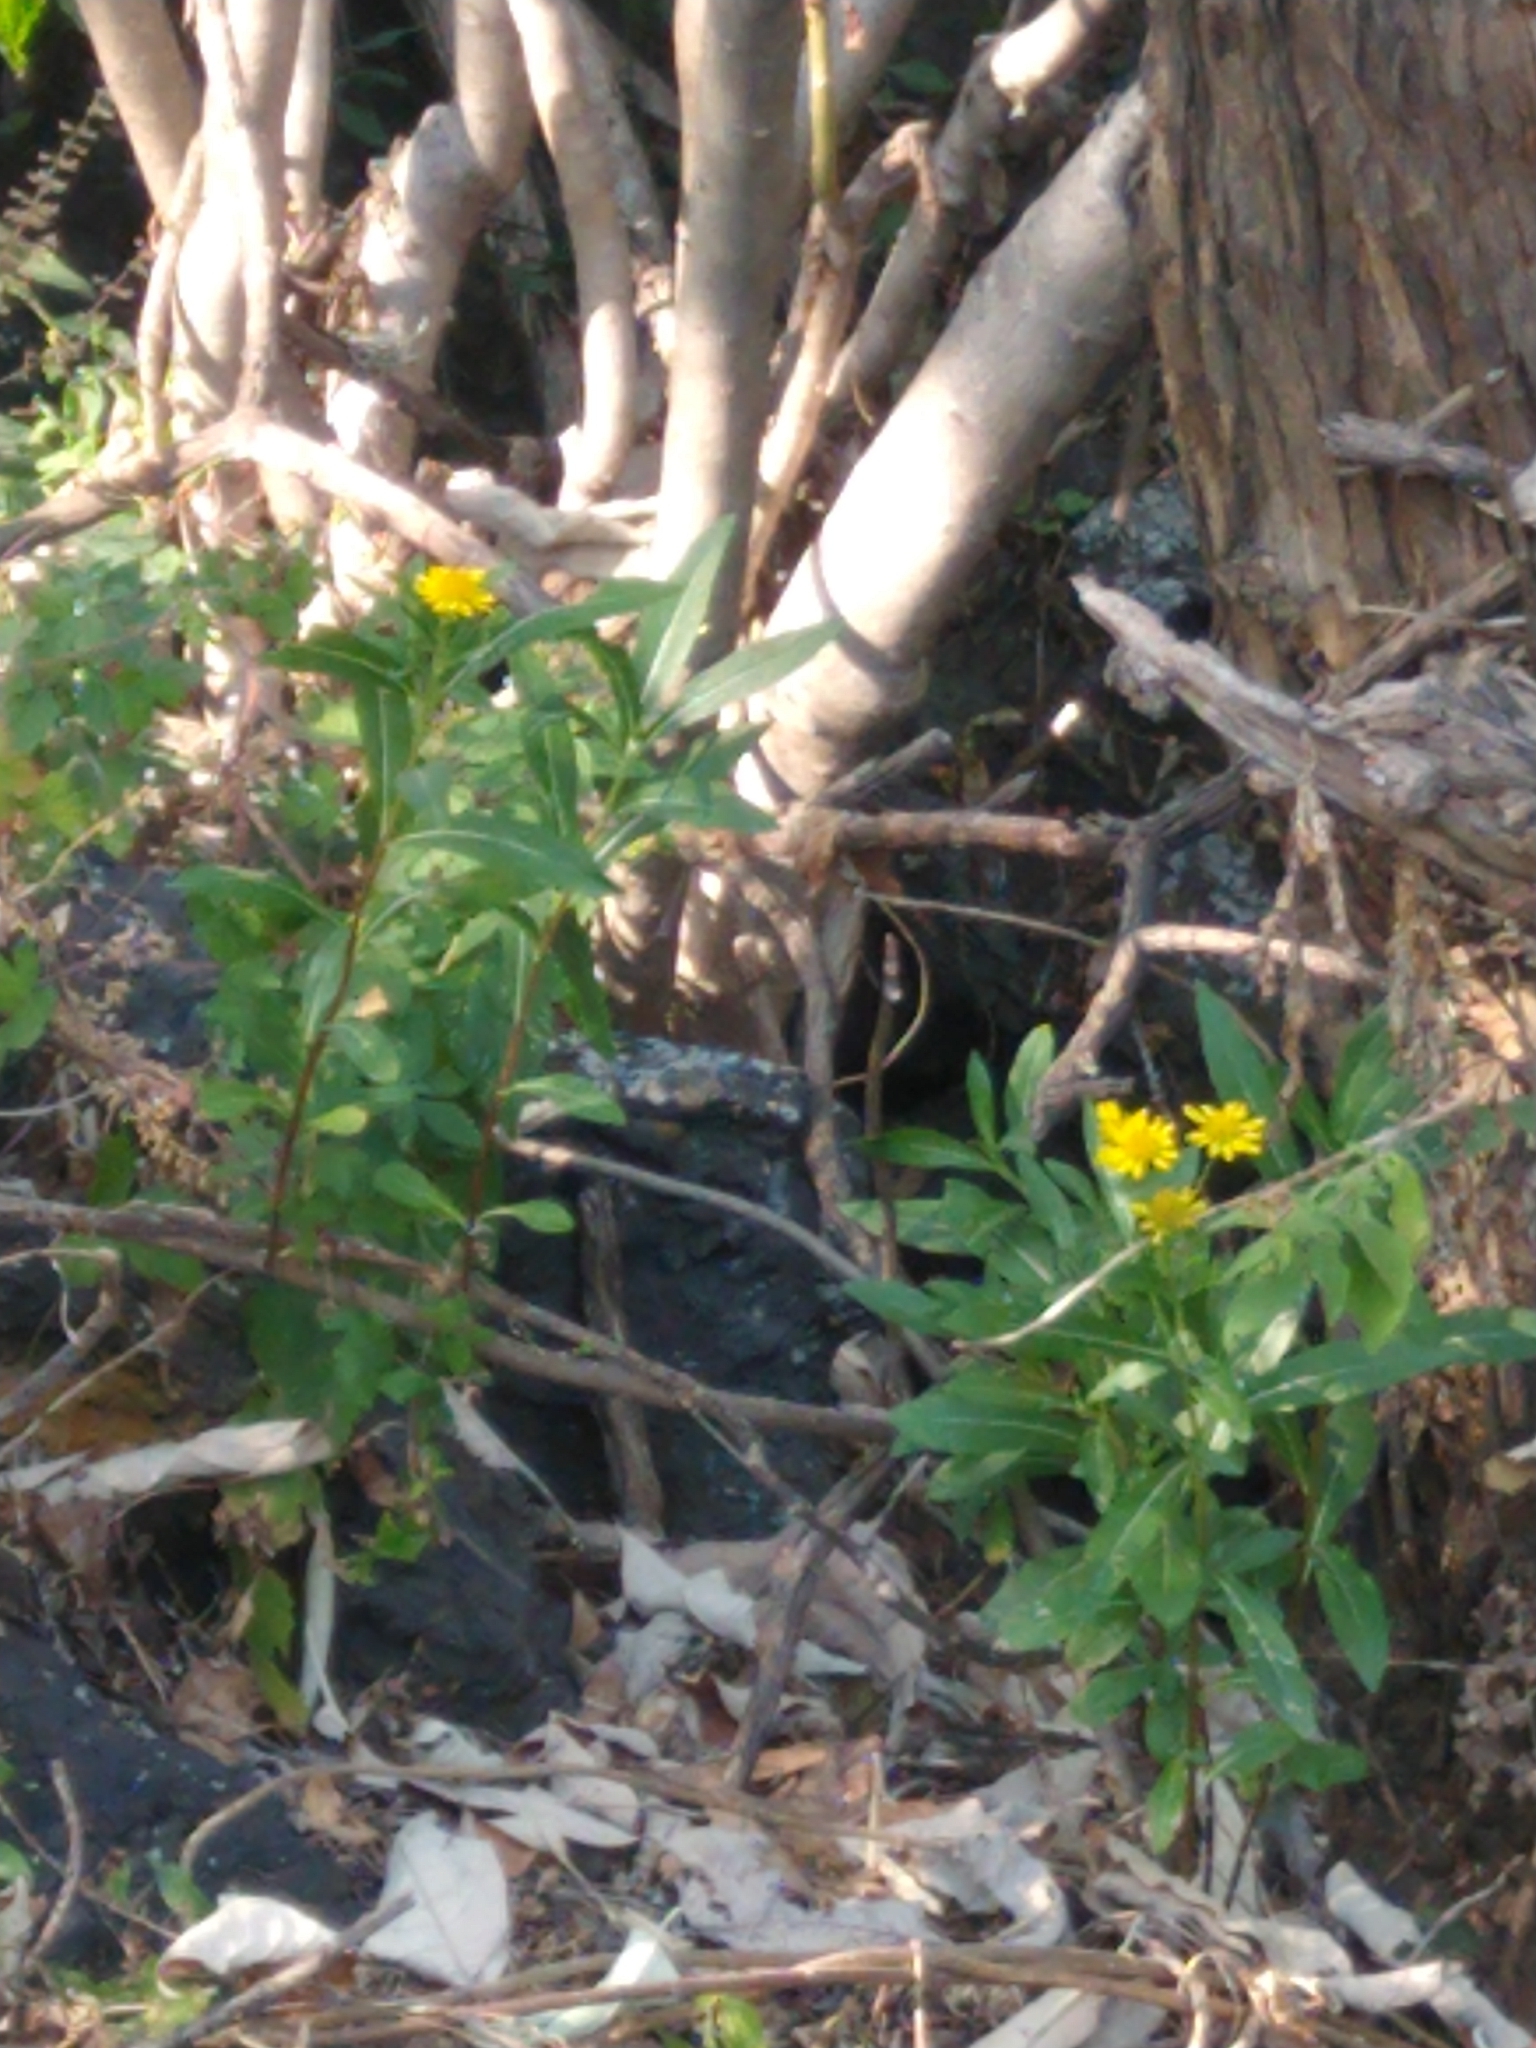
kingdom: Plantae
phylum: Tracheophyta
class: Magnoliopsida
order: Asterales
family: Asteraceae
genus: Verbesina
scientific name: Verbesina virgata
